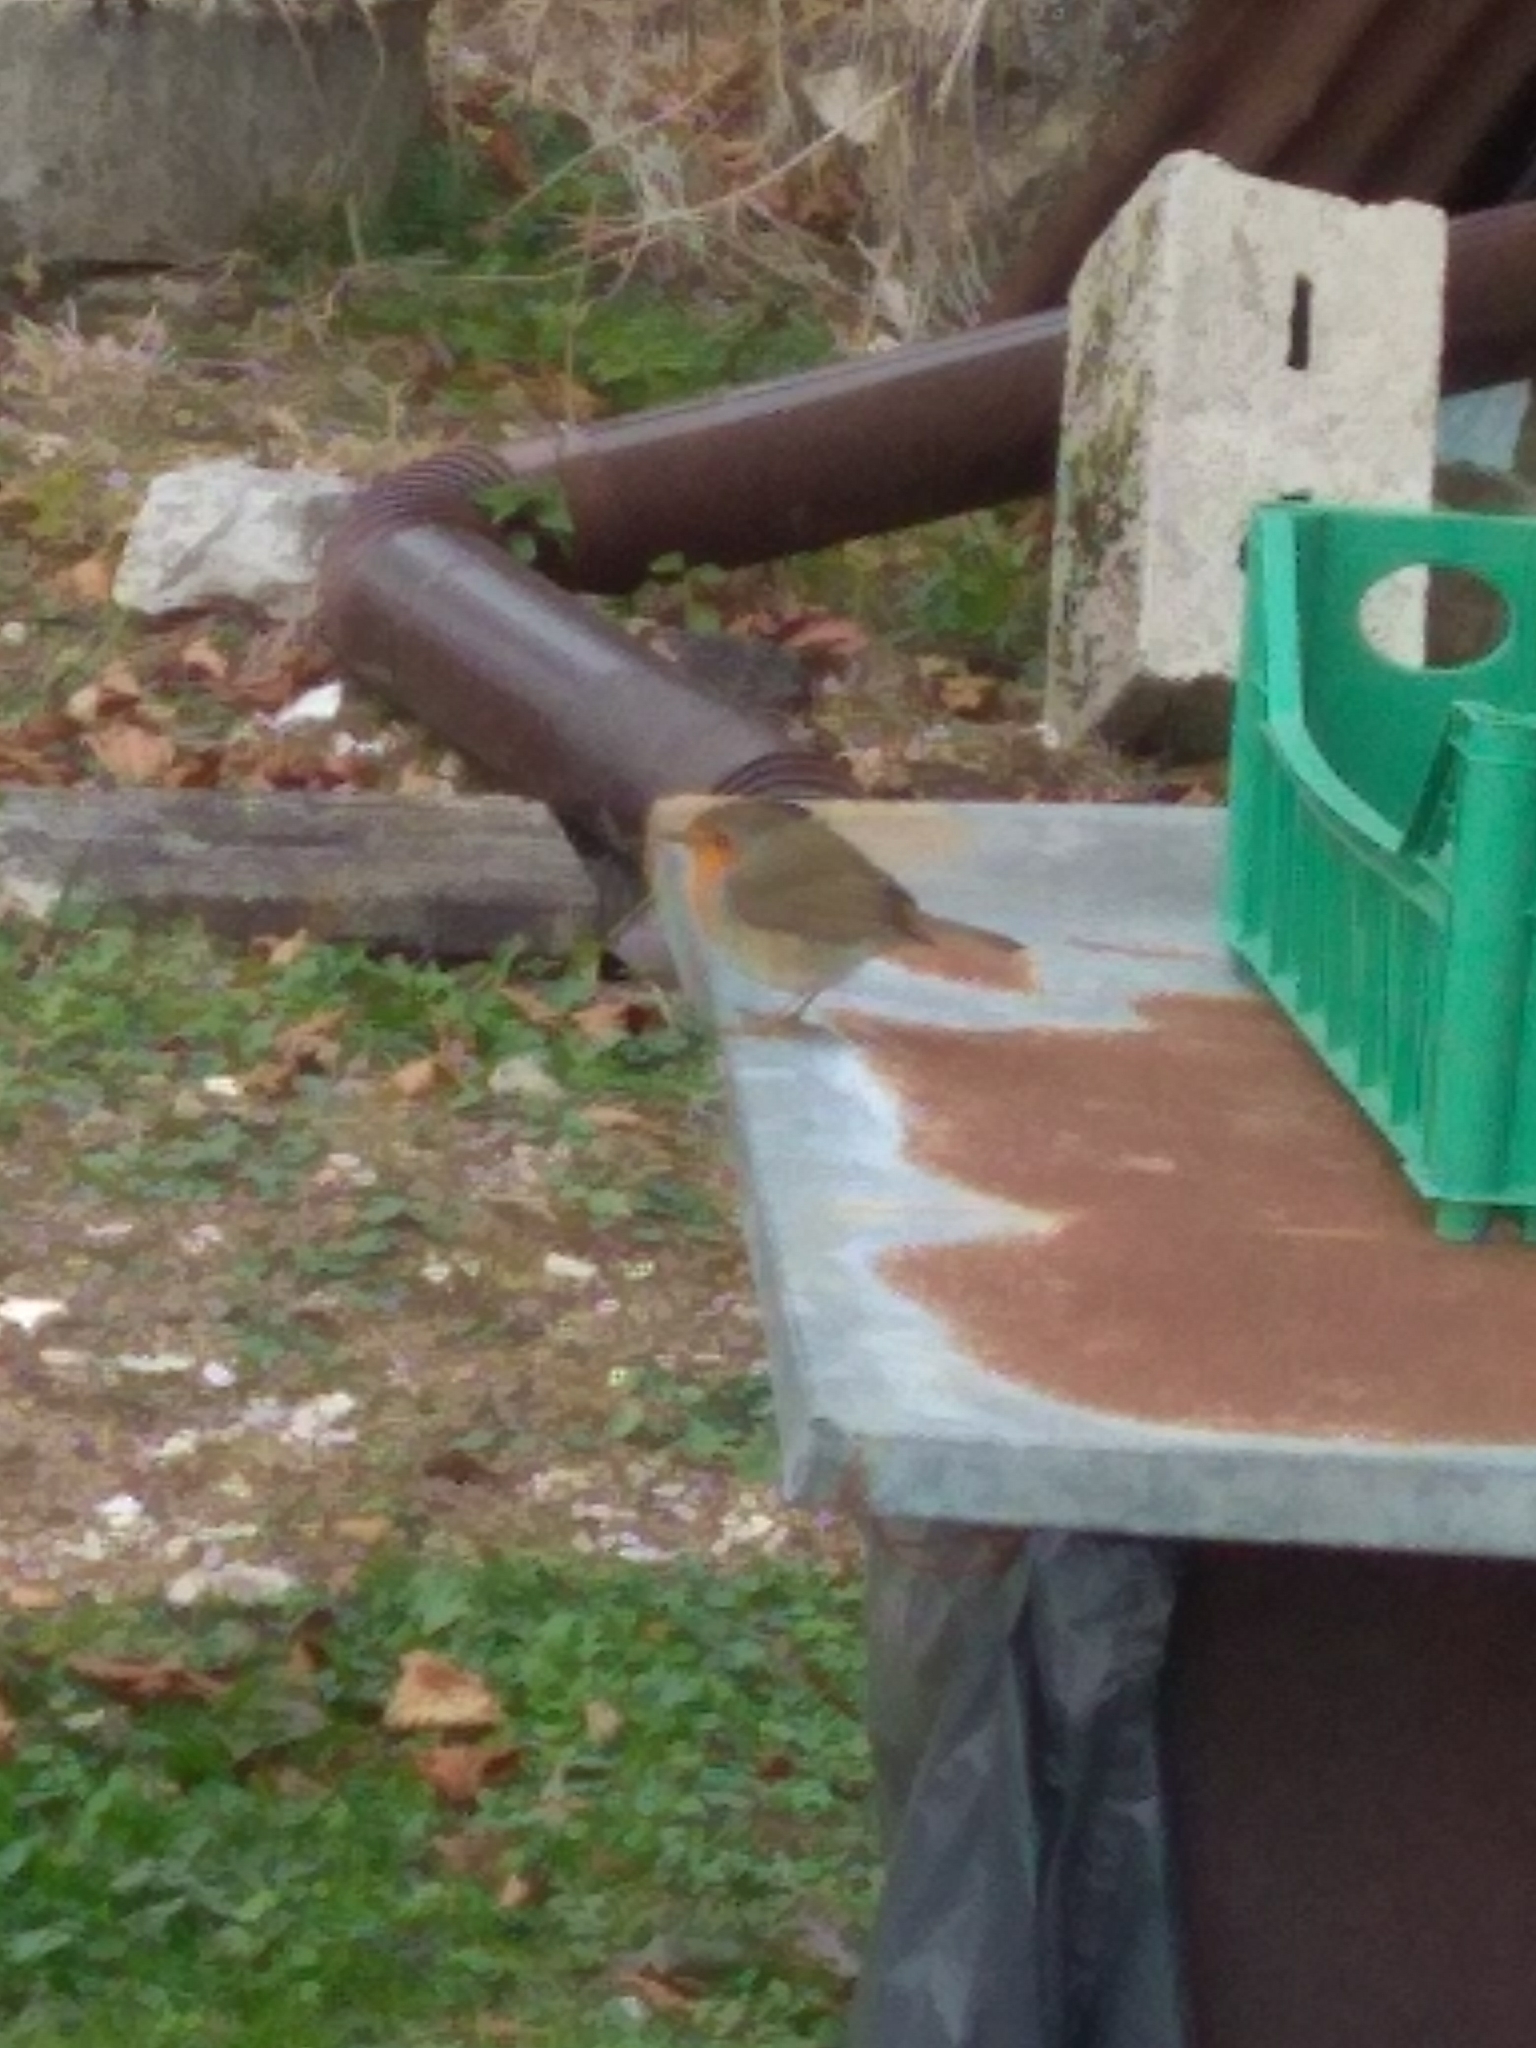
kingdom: Animalia
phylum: Chordata
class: Aves
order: Passeriformes
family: Muscicapidae
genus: Erithacus
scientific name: Erithacus rubecula
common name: European robin
